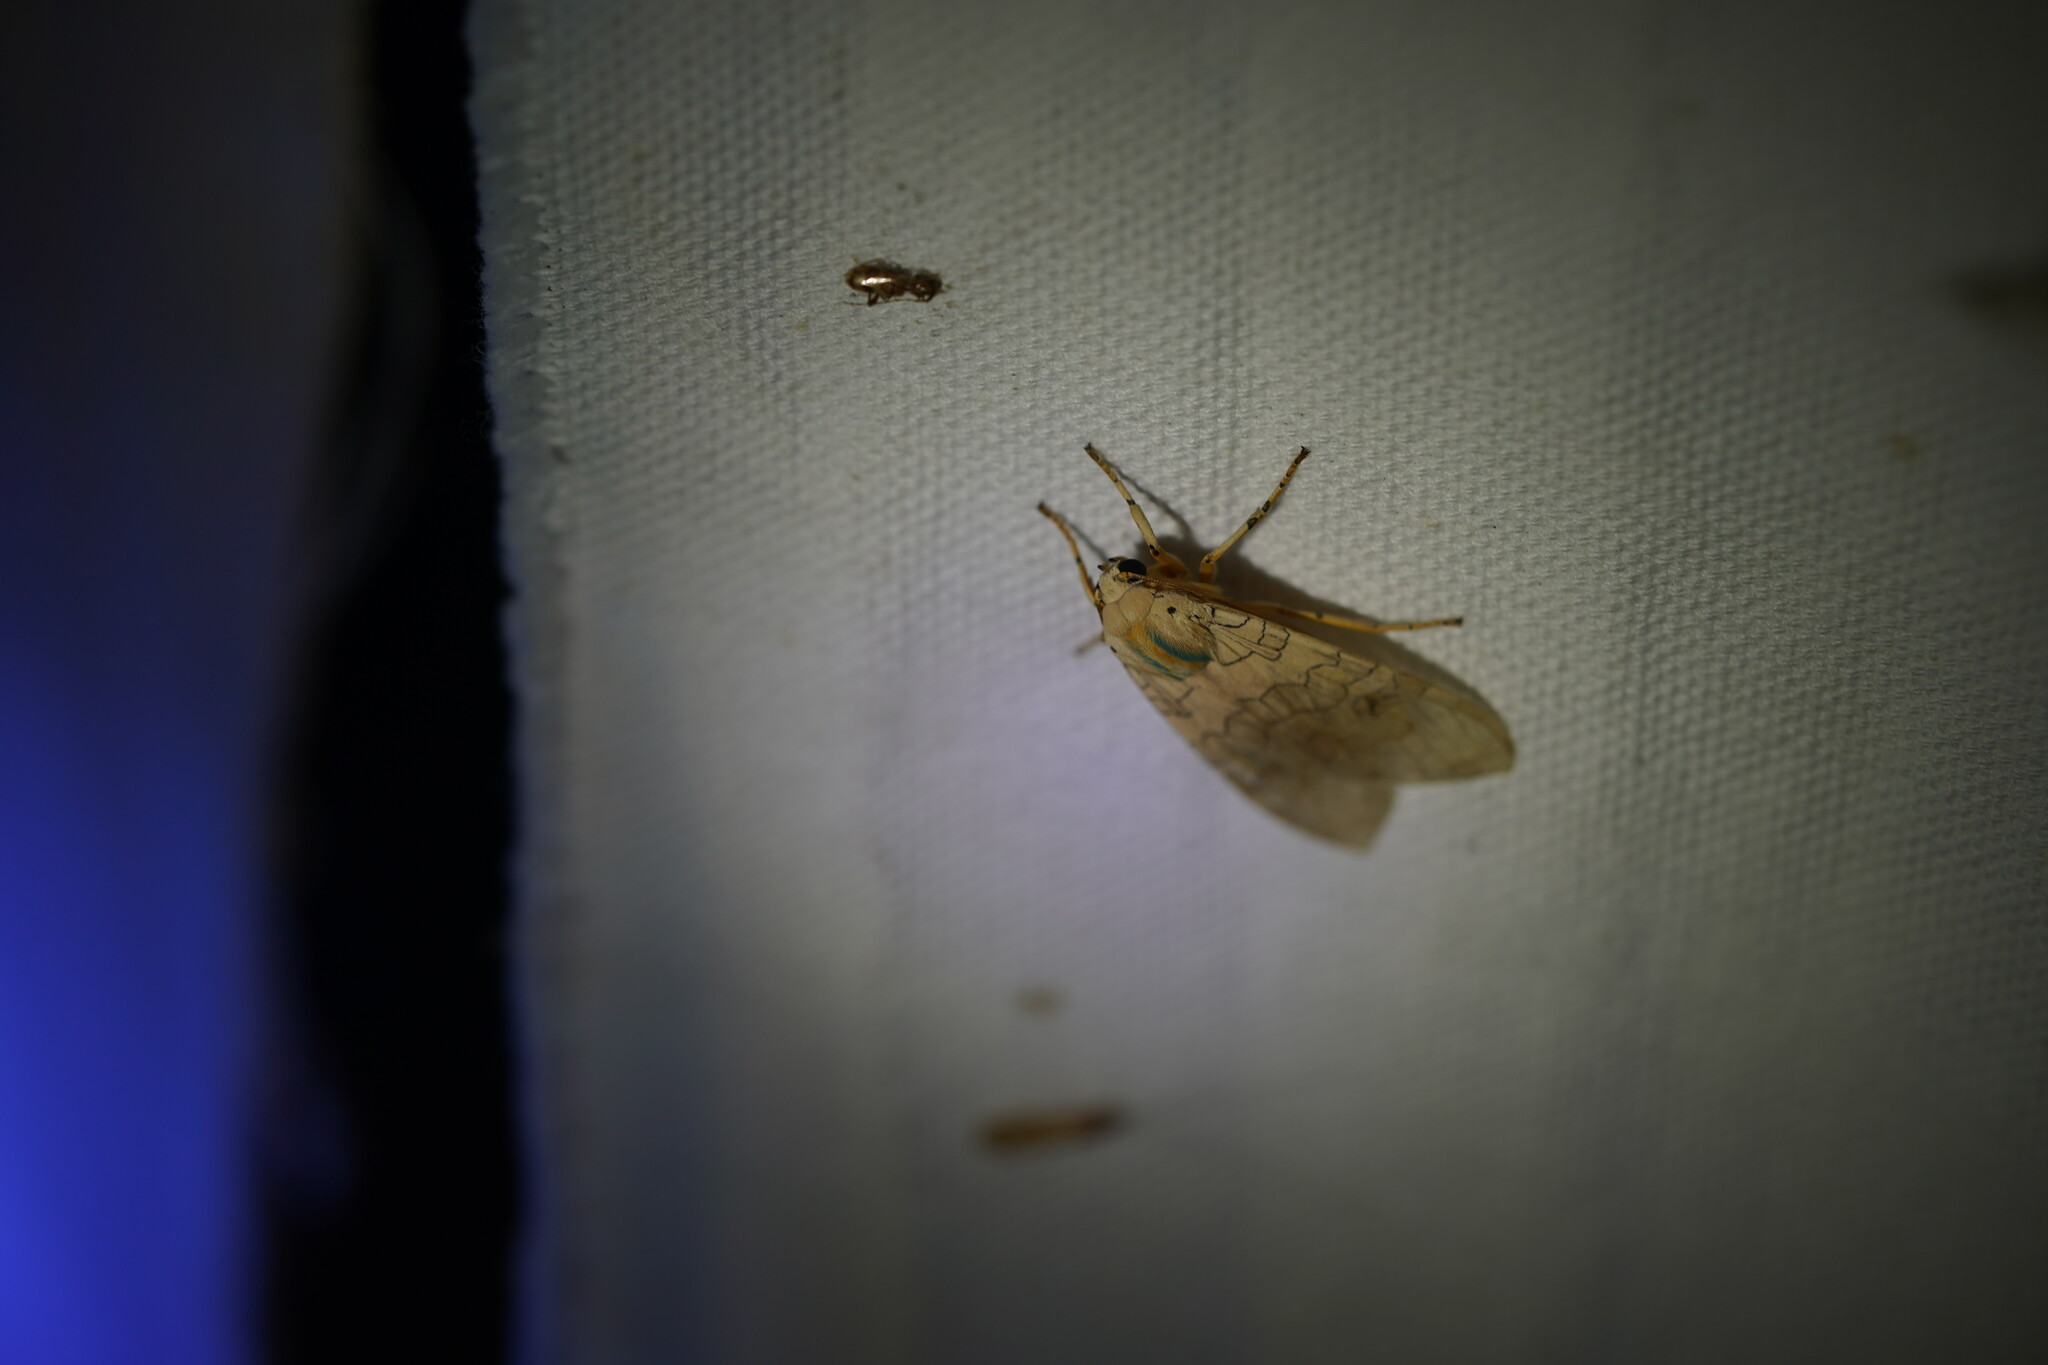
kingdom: Animalia
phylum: Arthropoda
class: Insecta
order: Lepidoptera
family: Erebidae
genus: Halysidota
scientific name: Halysidota
